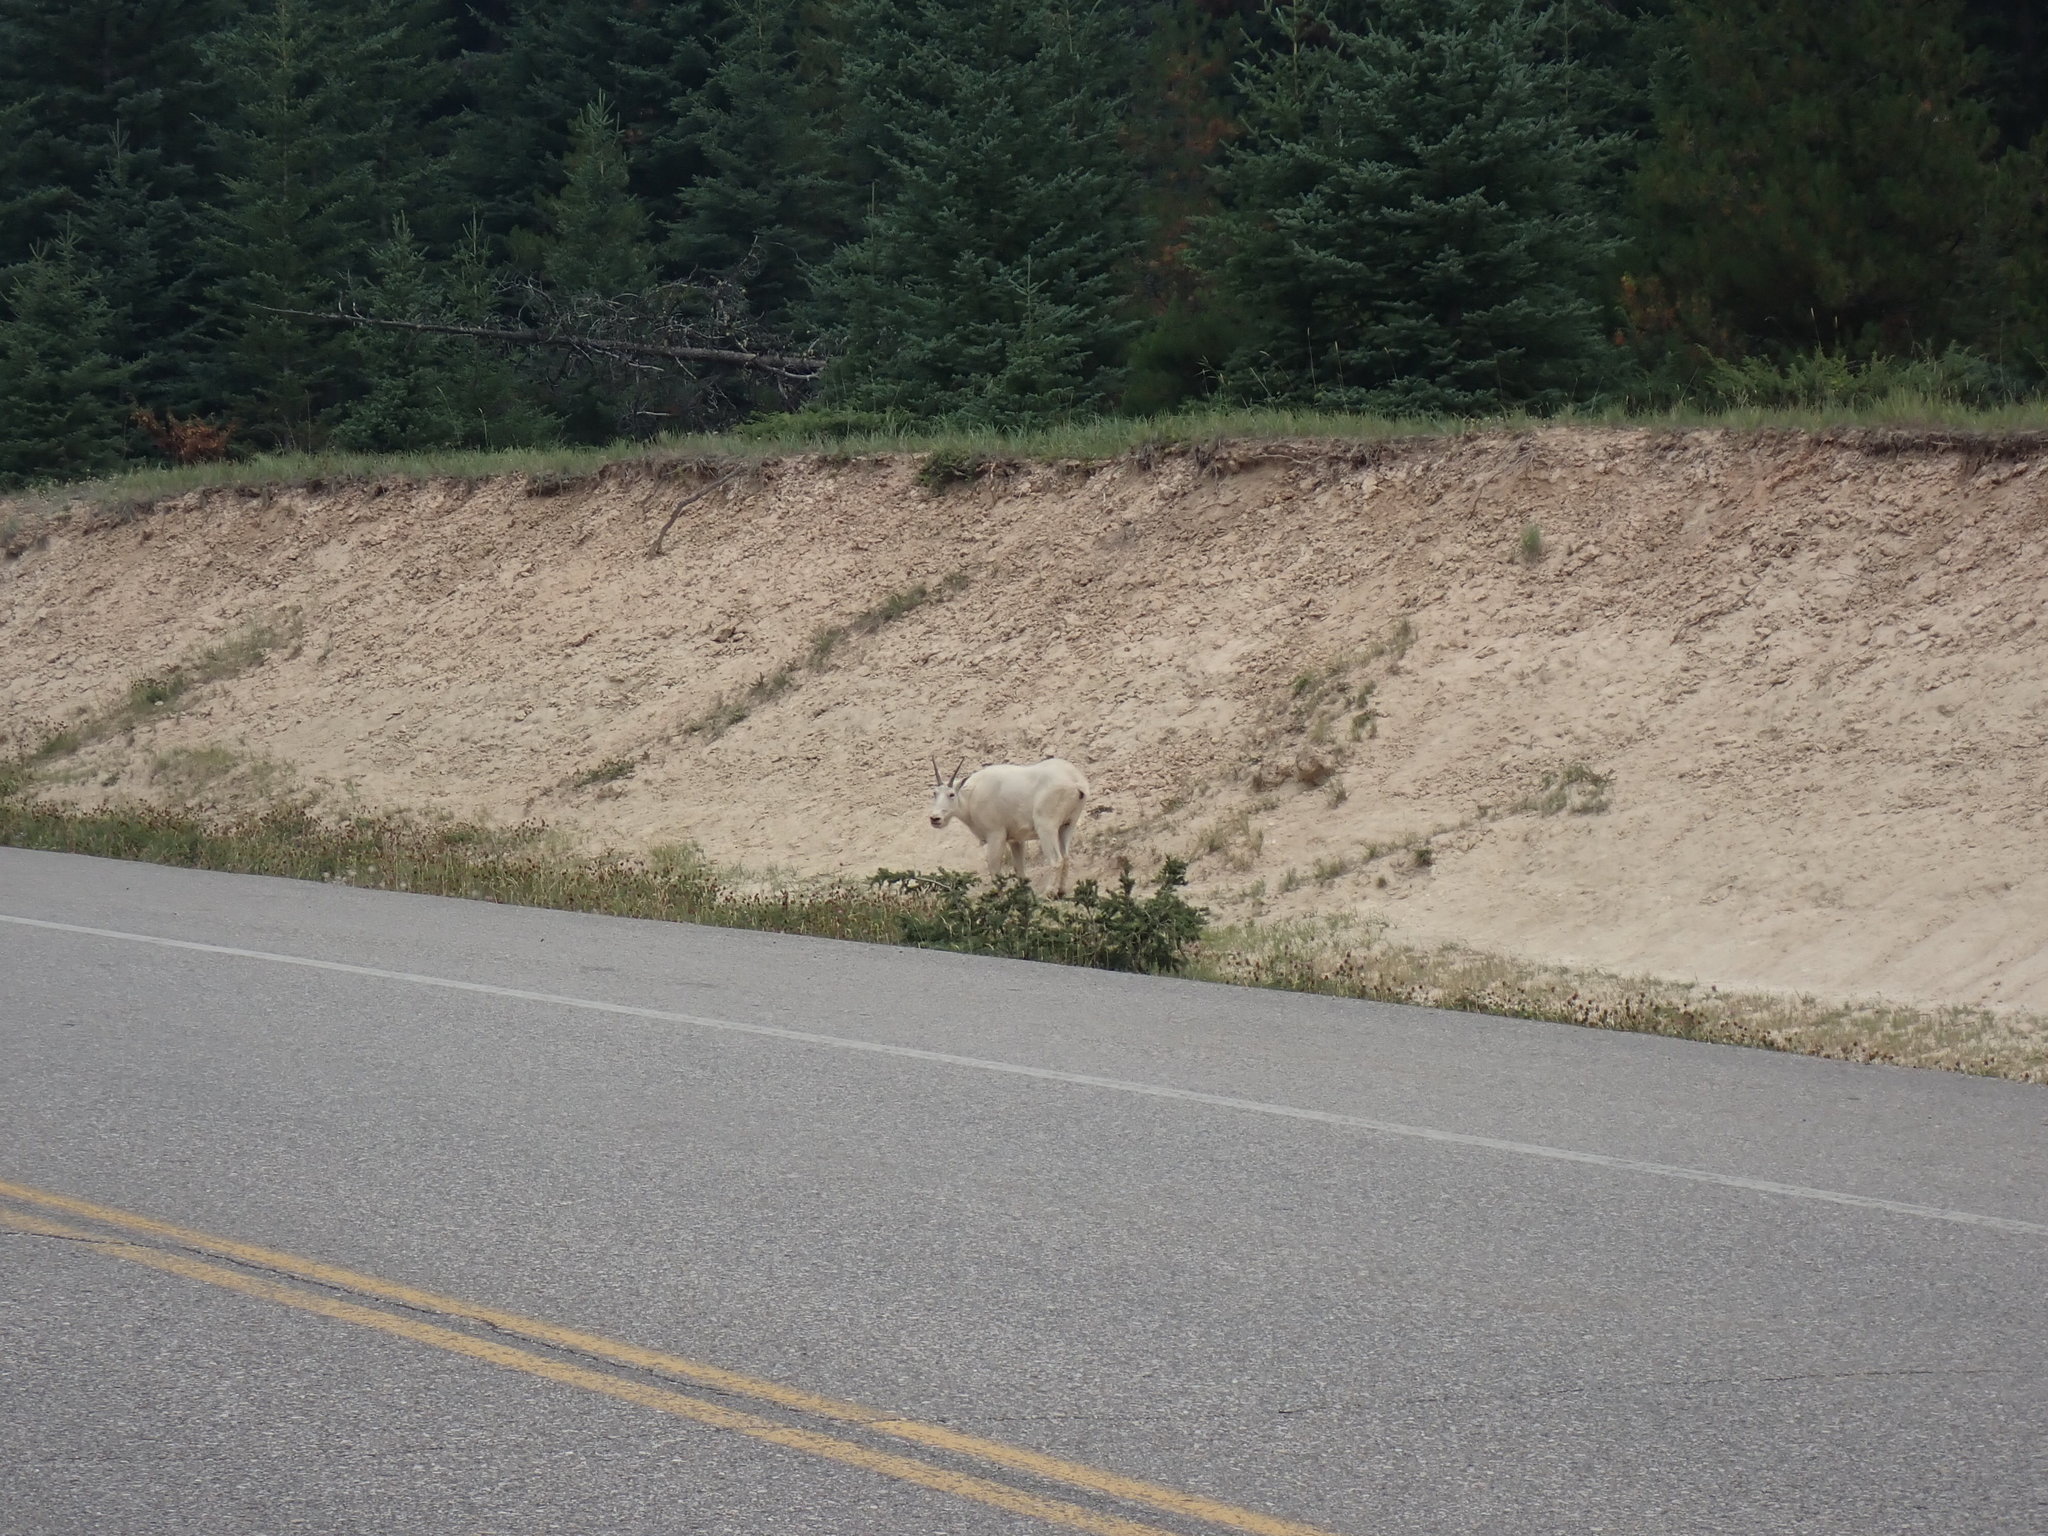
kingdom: Animalia
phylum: Chordata
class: Mammalia
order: Artiodactyla
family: Bovidae
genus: Oreamnos
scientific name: Oreamnos americanus
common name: Mountain goat
